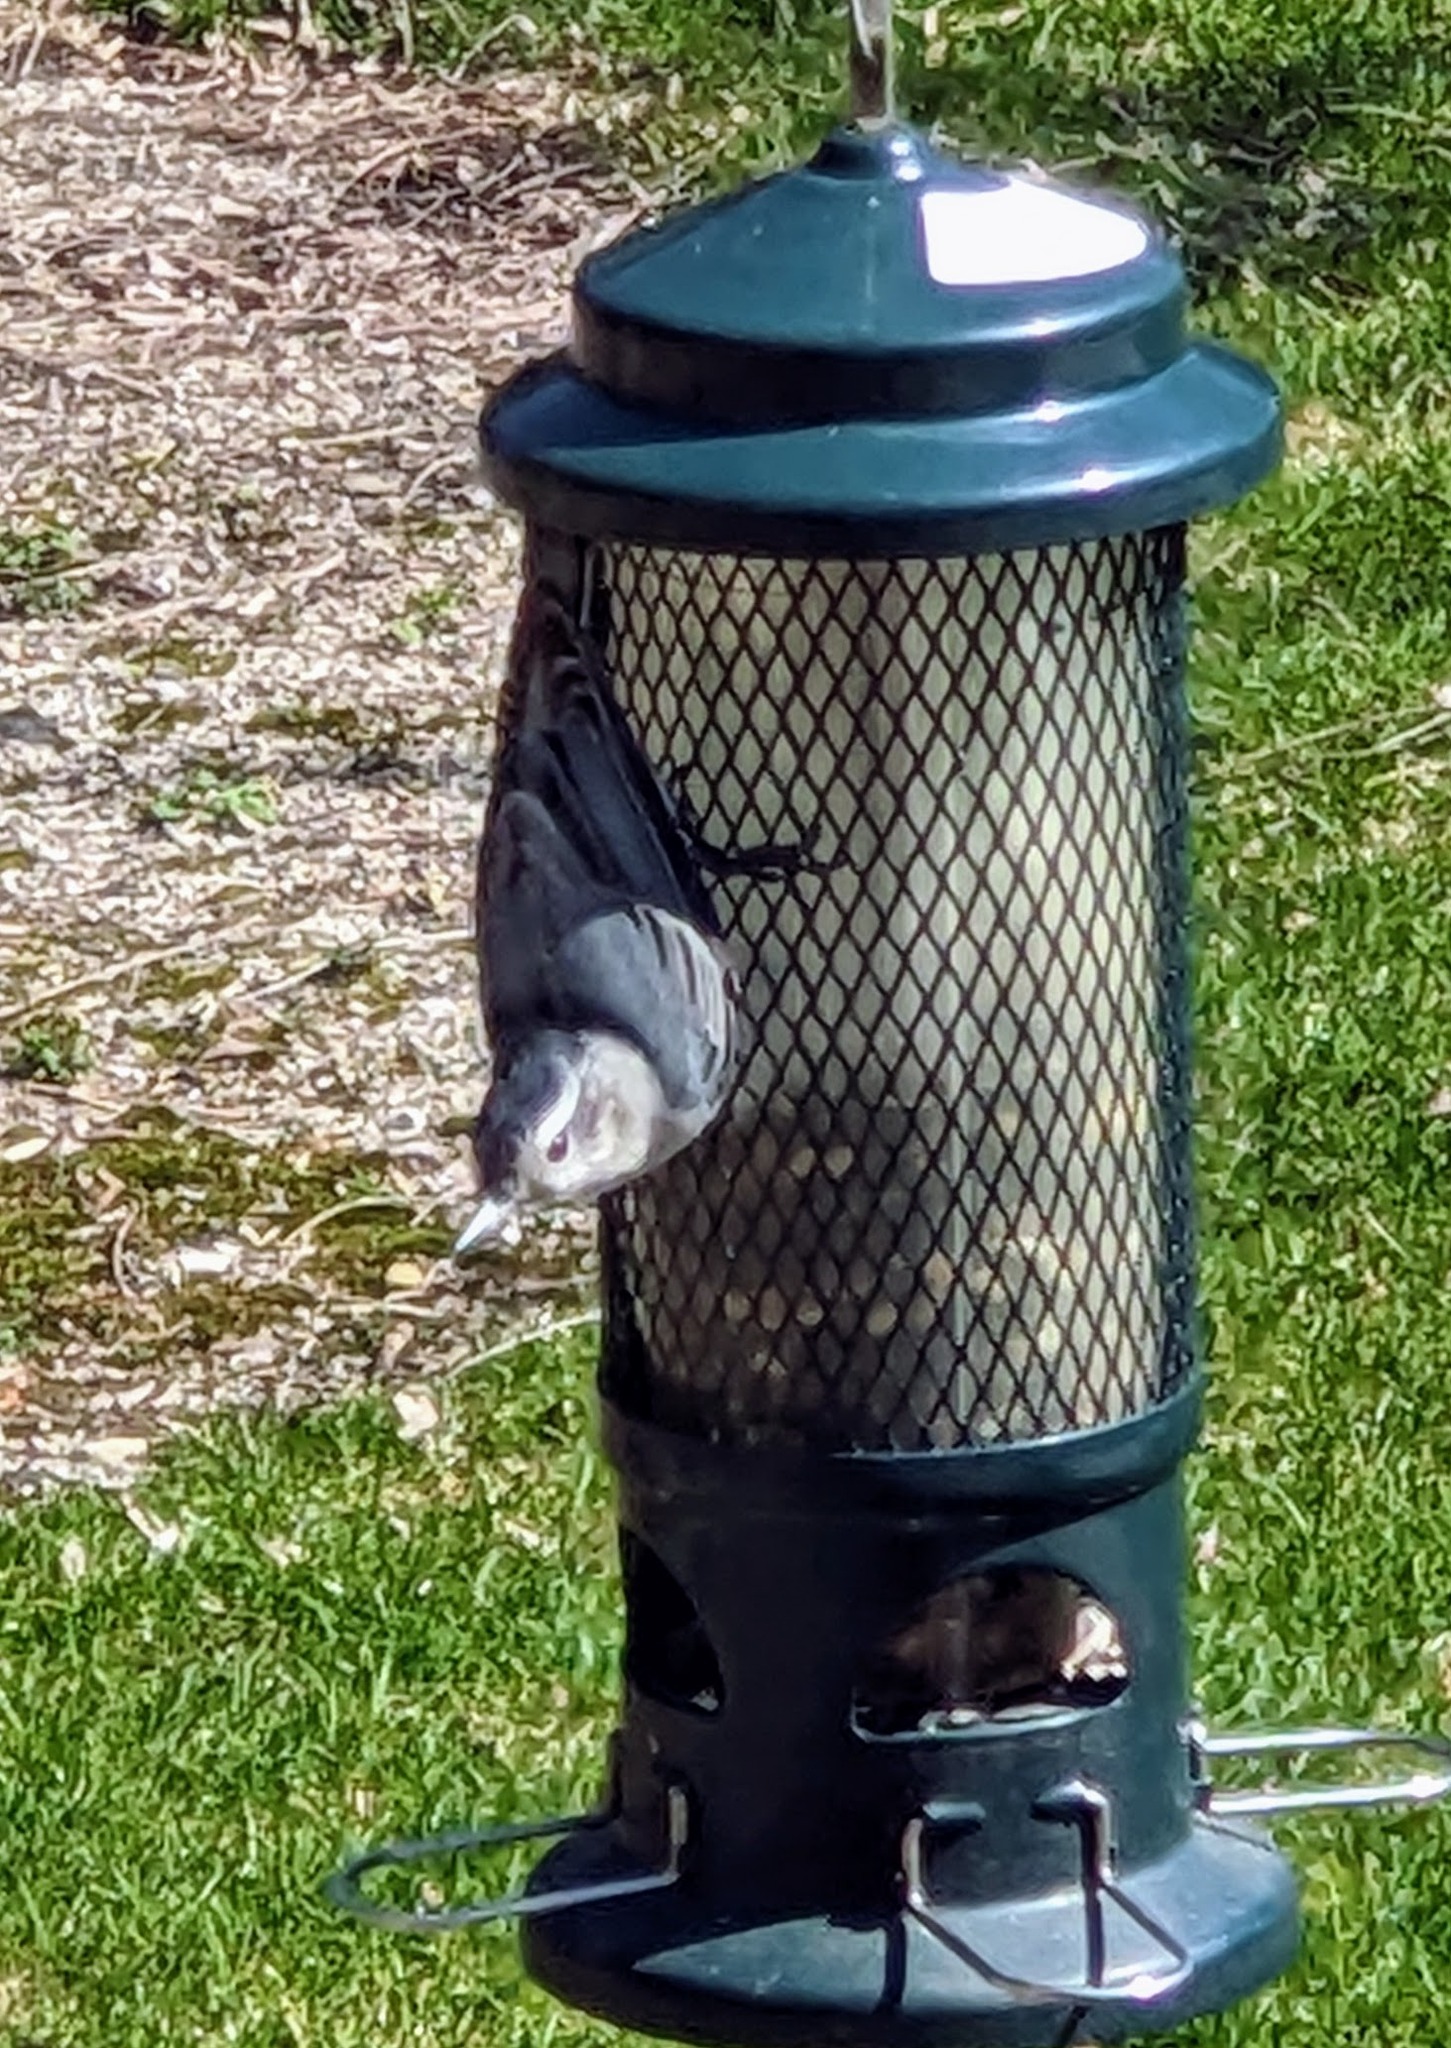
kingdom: Animalia
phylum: Chordata
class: Aves
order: Passeriformes
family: Sittidae
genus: Sitta
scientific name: Sitta carolinensis
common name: White-breasted nuthatch
